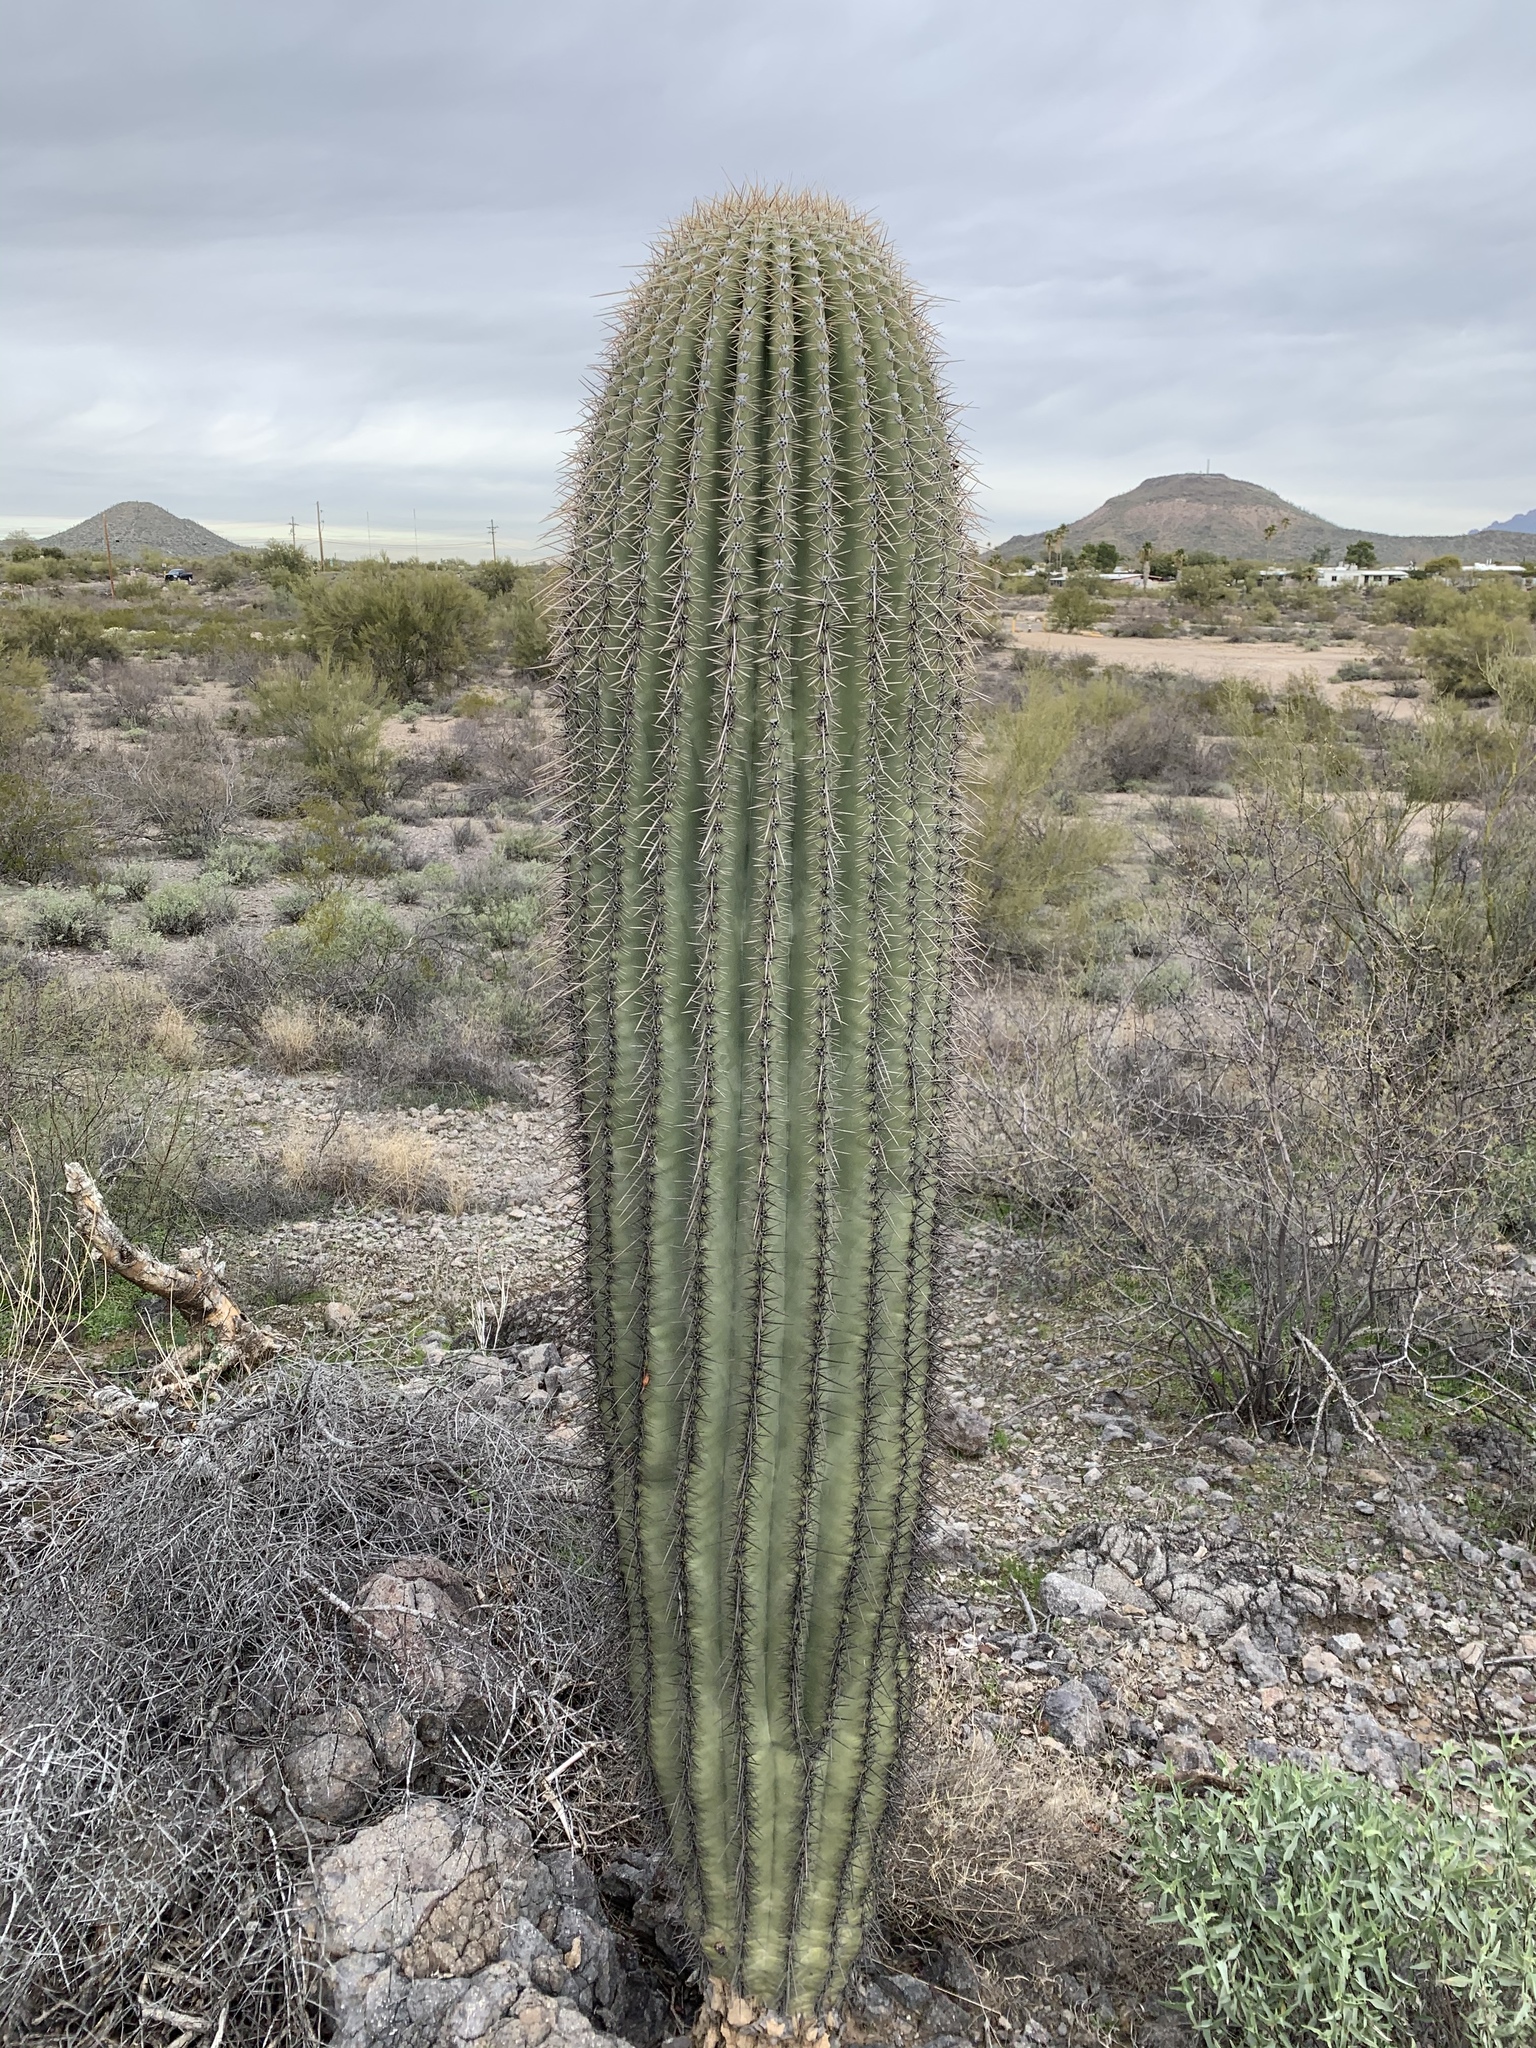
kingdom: Plantae
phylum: Tracheophyta
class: Magnoliopsida
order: Caryophyllales
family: Cactaceae
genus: Carnegiea
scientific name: Carnegiea gigantea
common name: Saguaro
